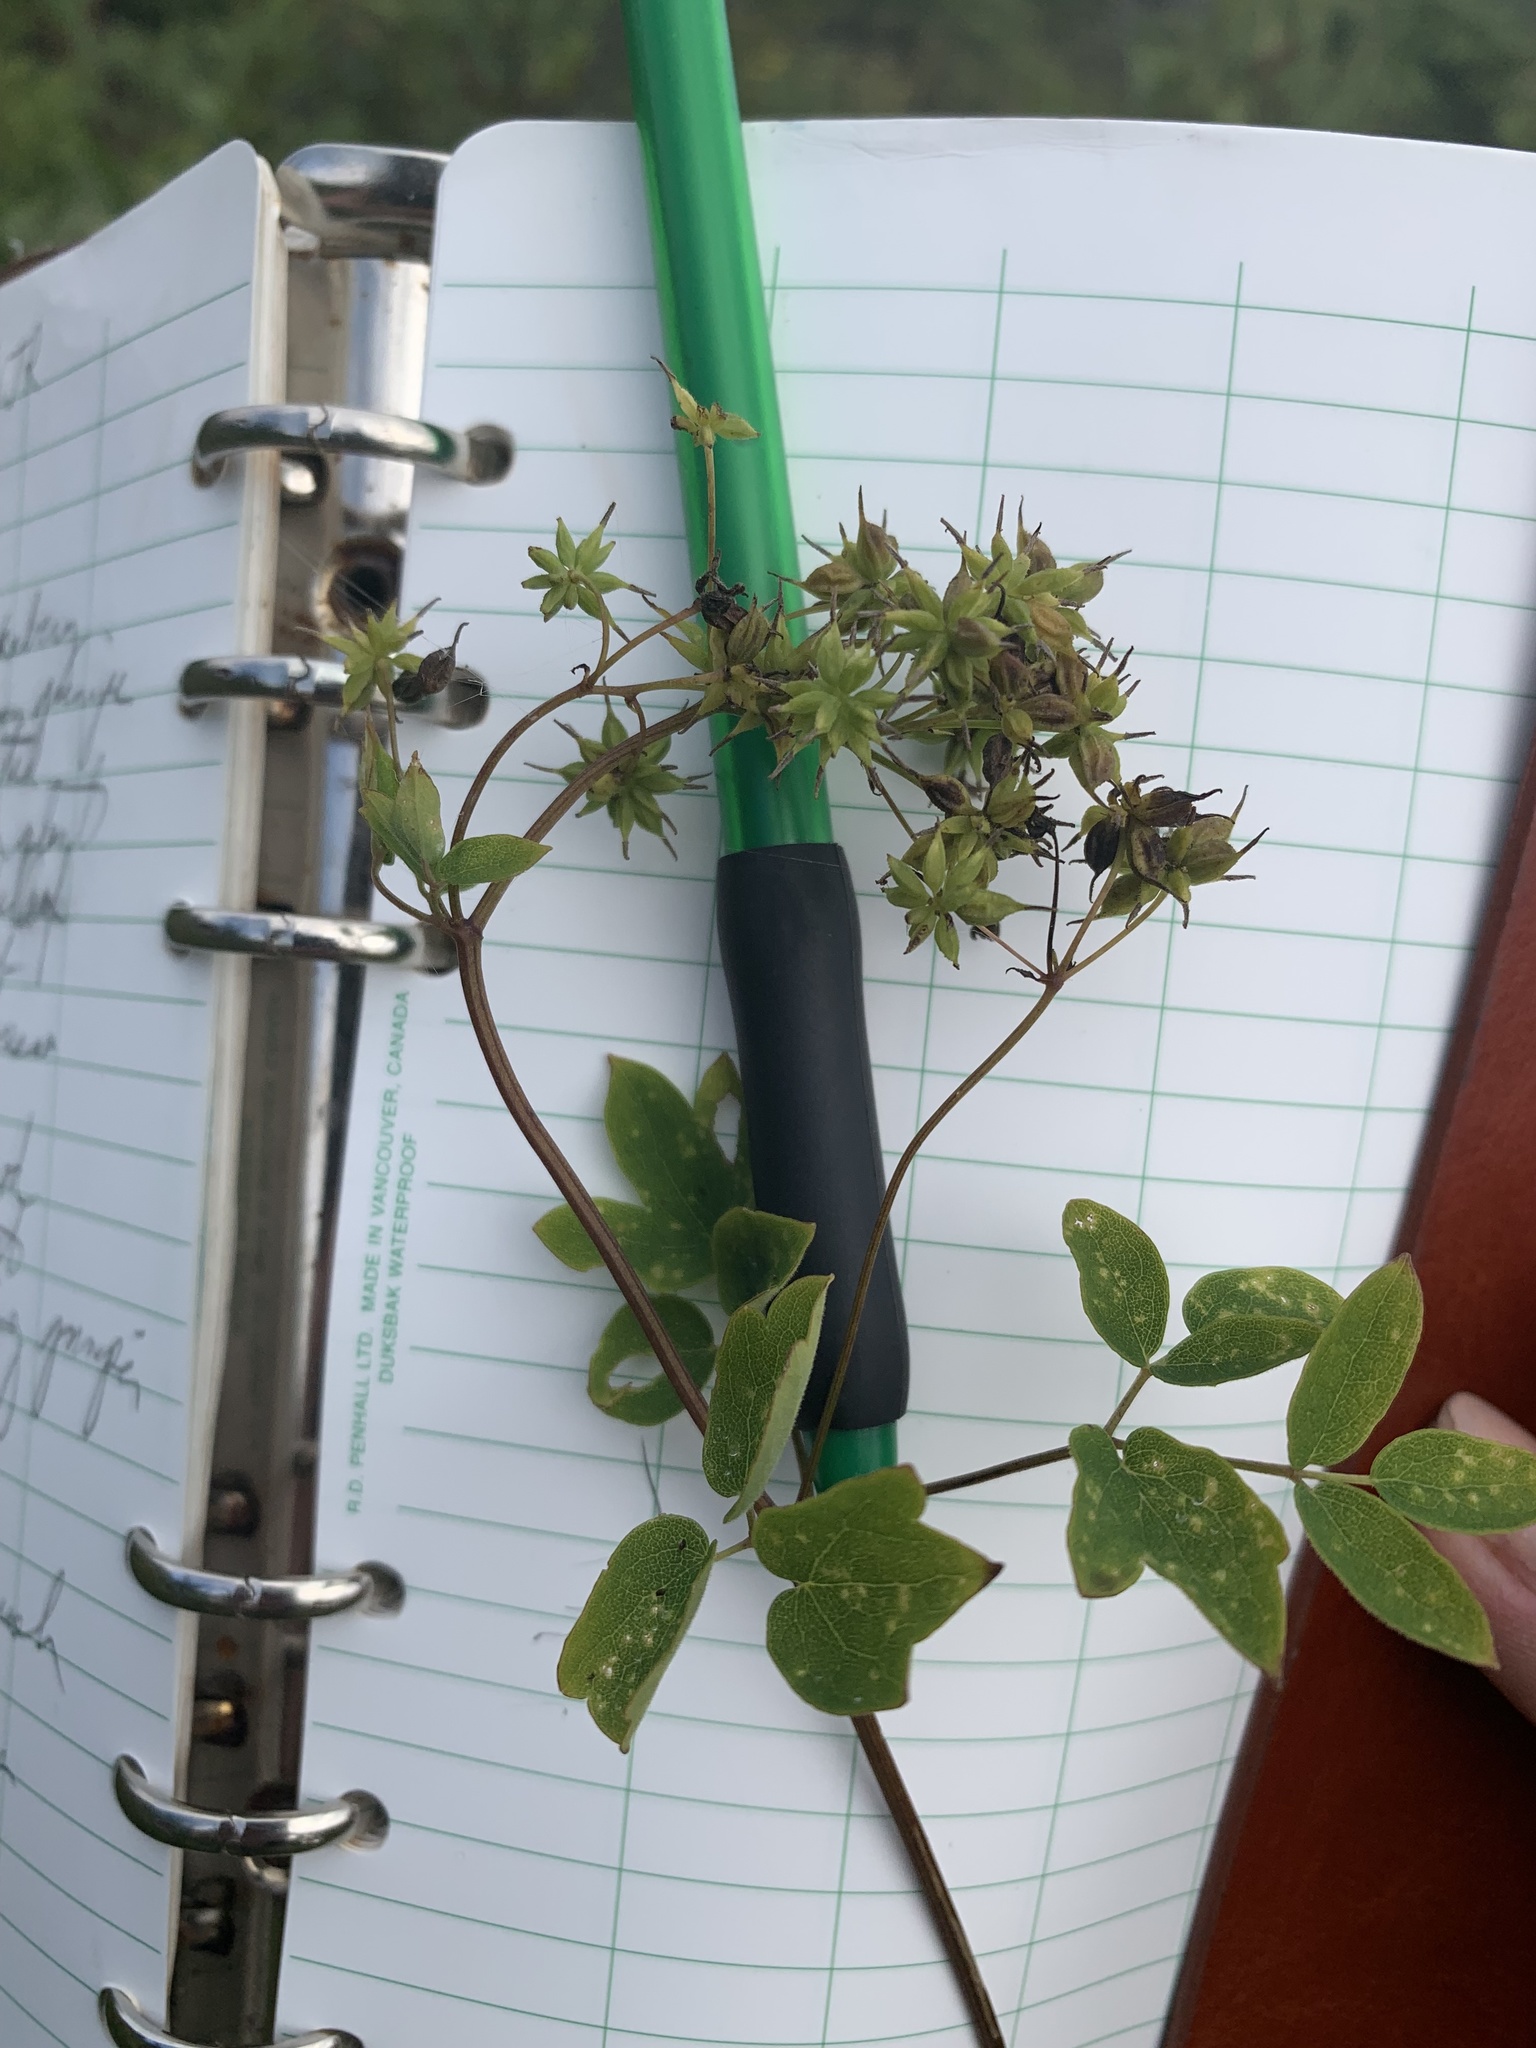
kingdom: Plantae
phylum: Tracheophyta
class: Magnoliopsida
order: Ranunculales
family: Ranunculaceae
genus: Thalictrum
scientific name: Thalictrum pubescens
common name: King-of-the-meadow
